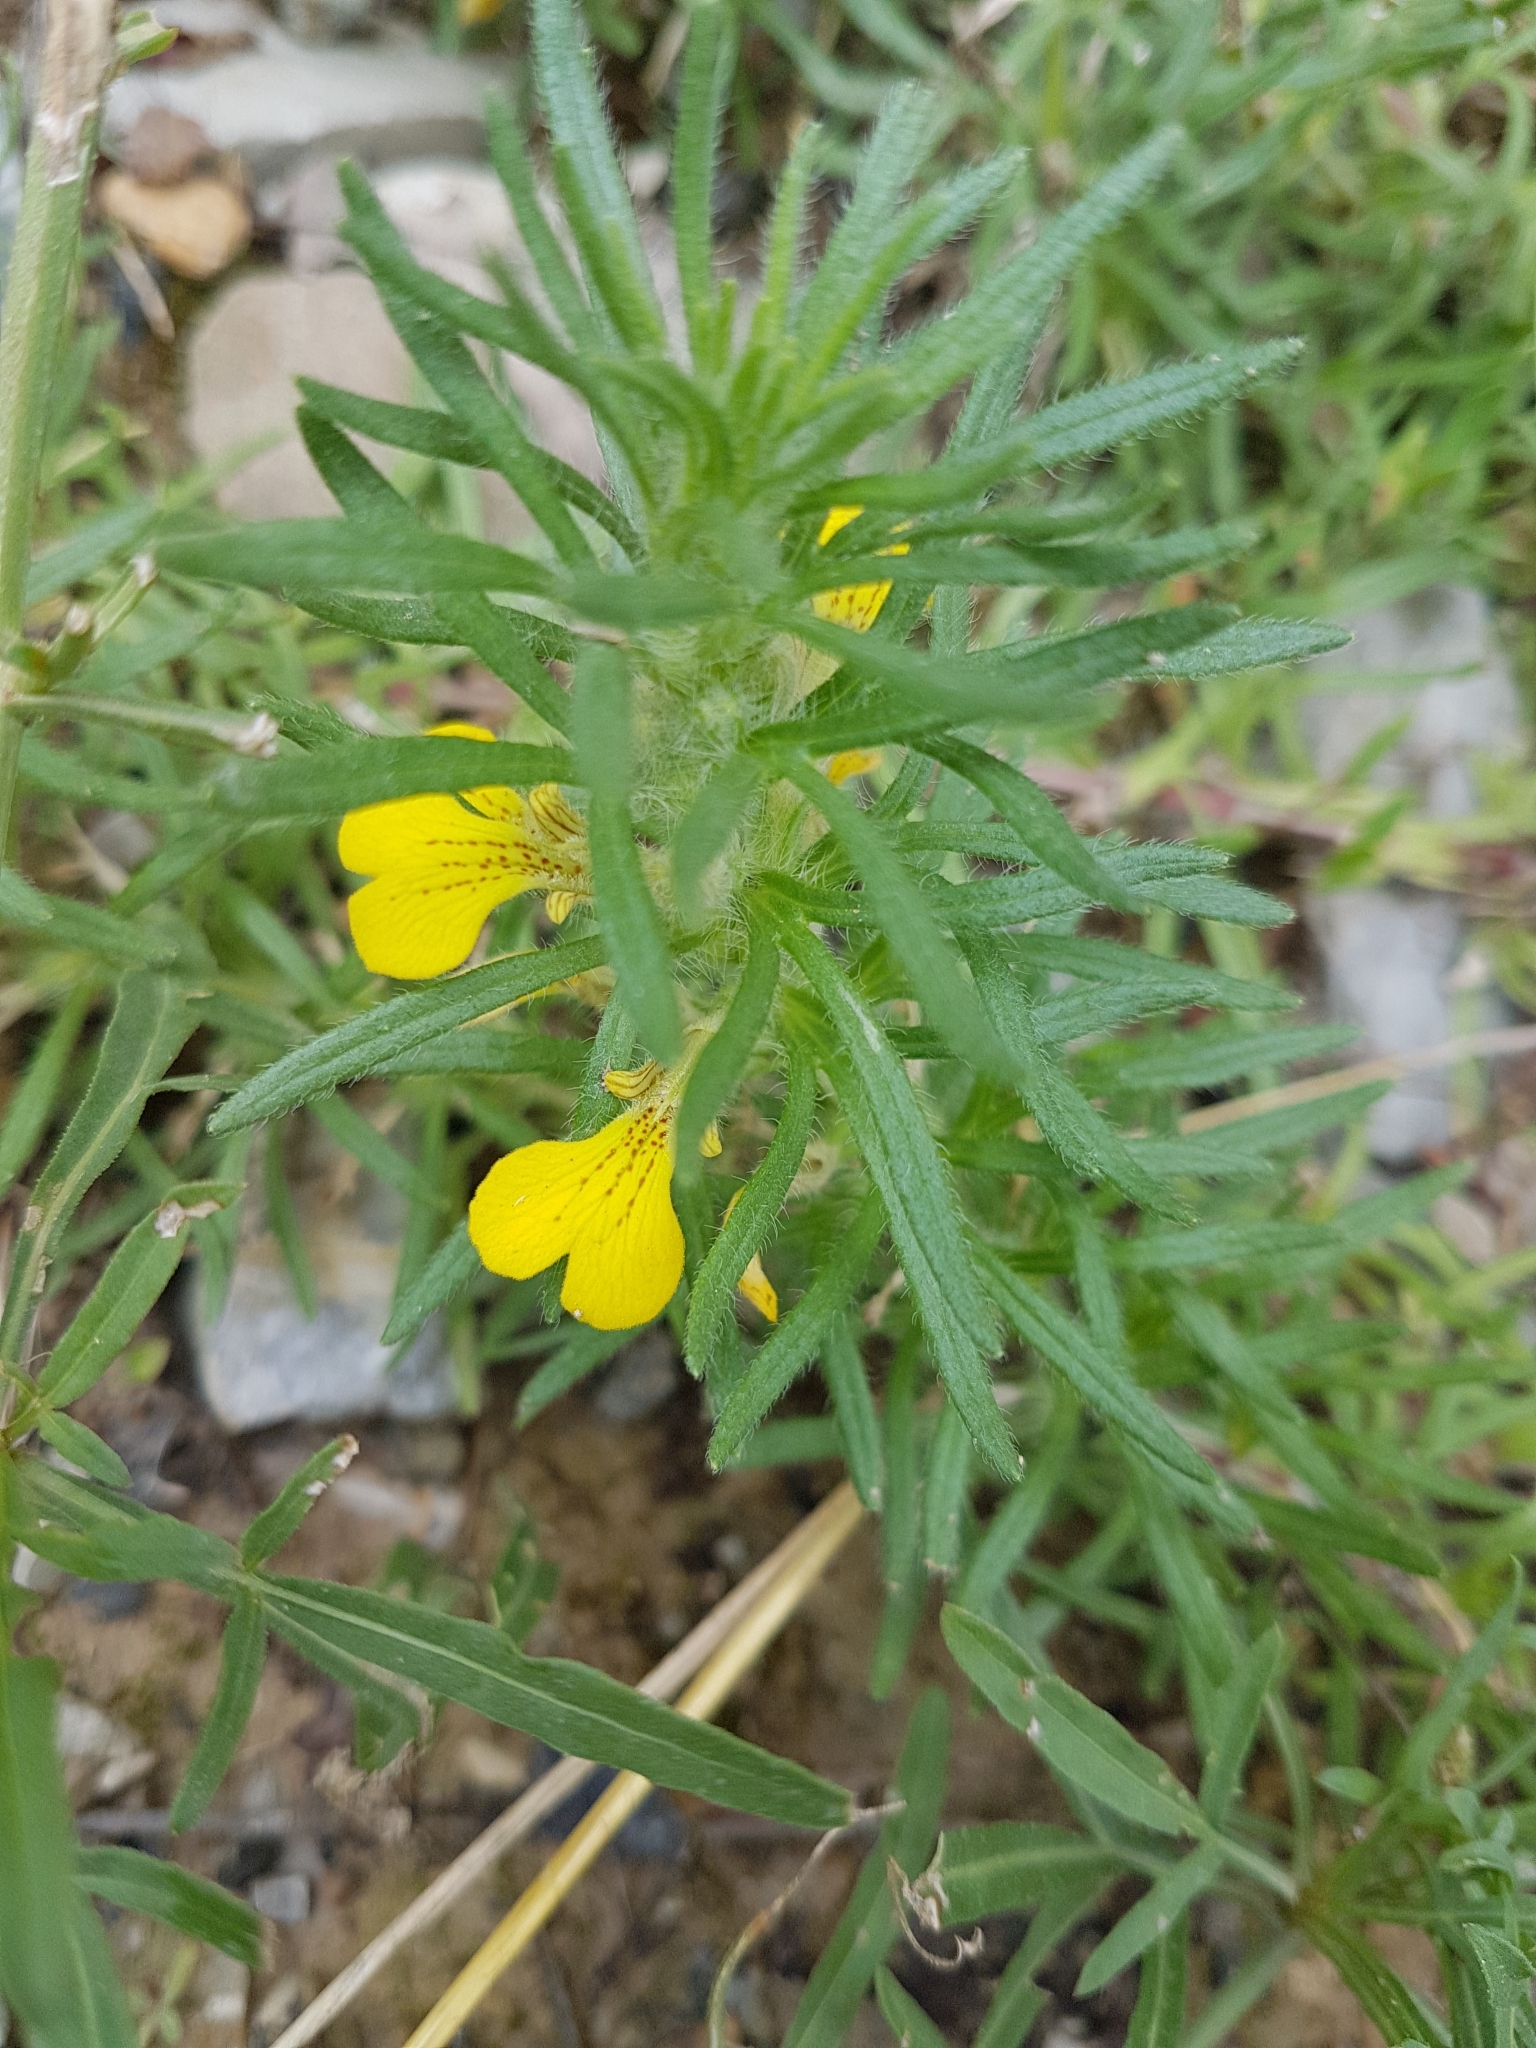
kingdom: Plantae
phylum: Tracheophyta
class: Magnoliopsida
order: Lamiales
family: Lamiaceae
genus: Ajuga
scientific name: Ajuga chamaepitys
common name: Ground-pine
